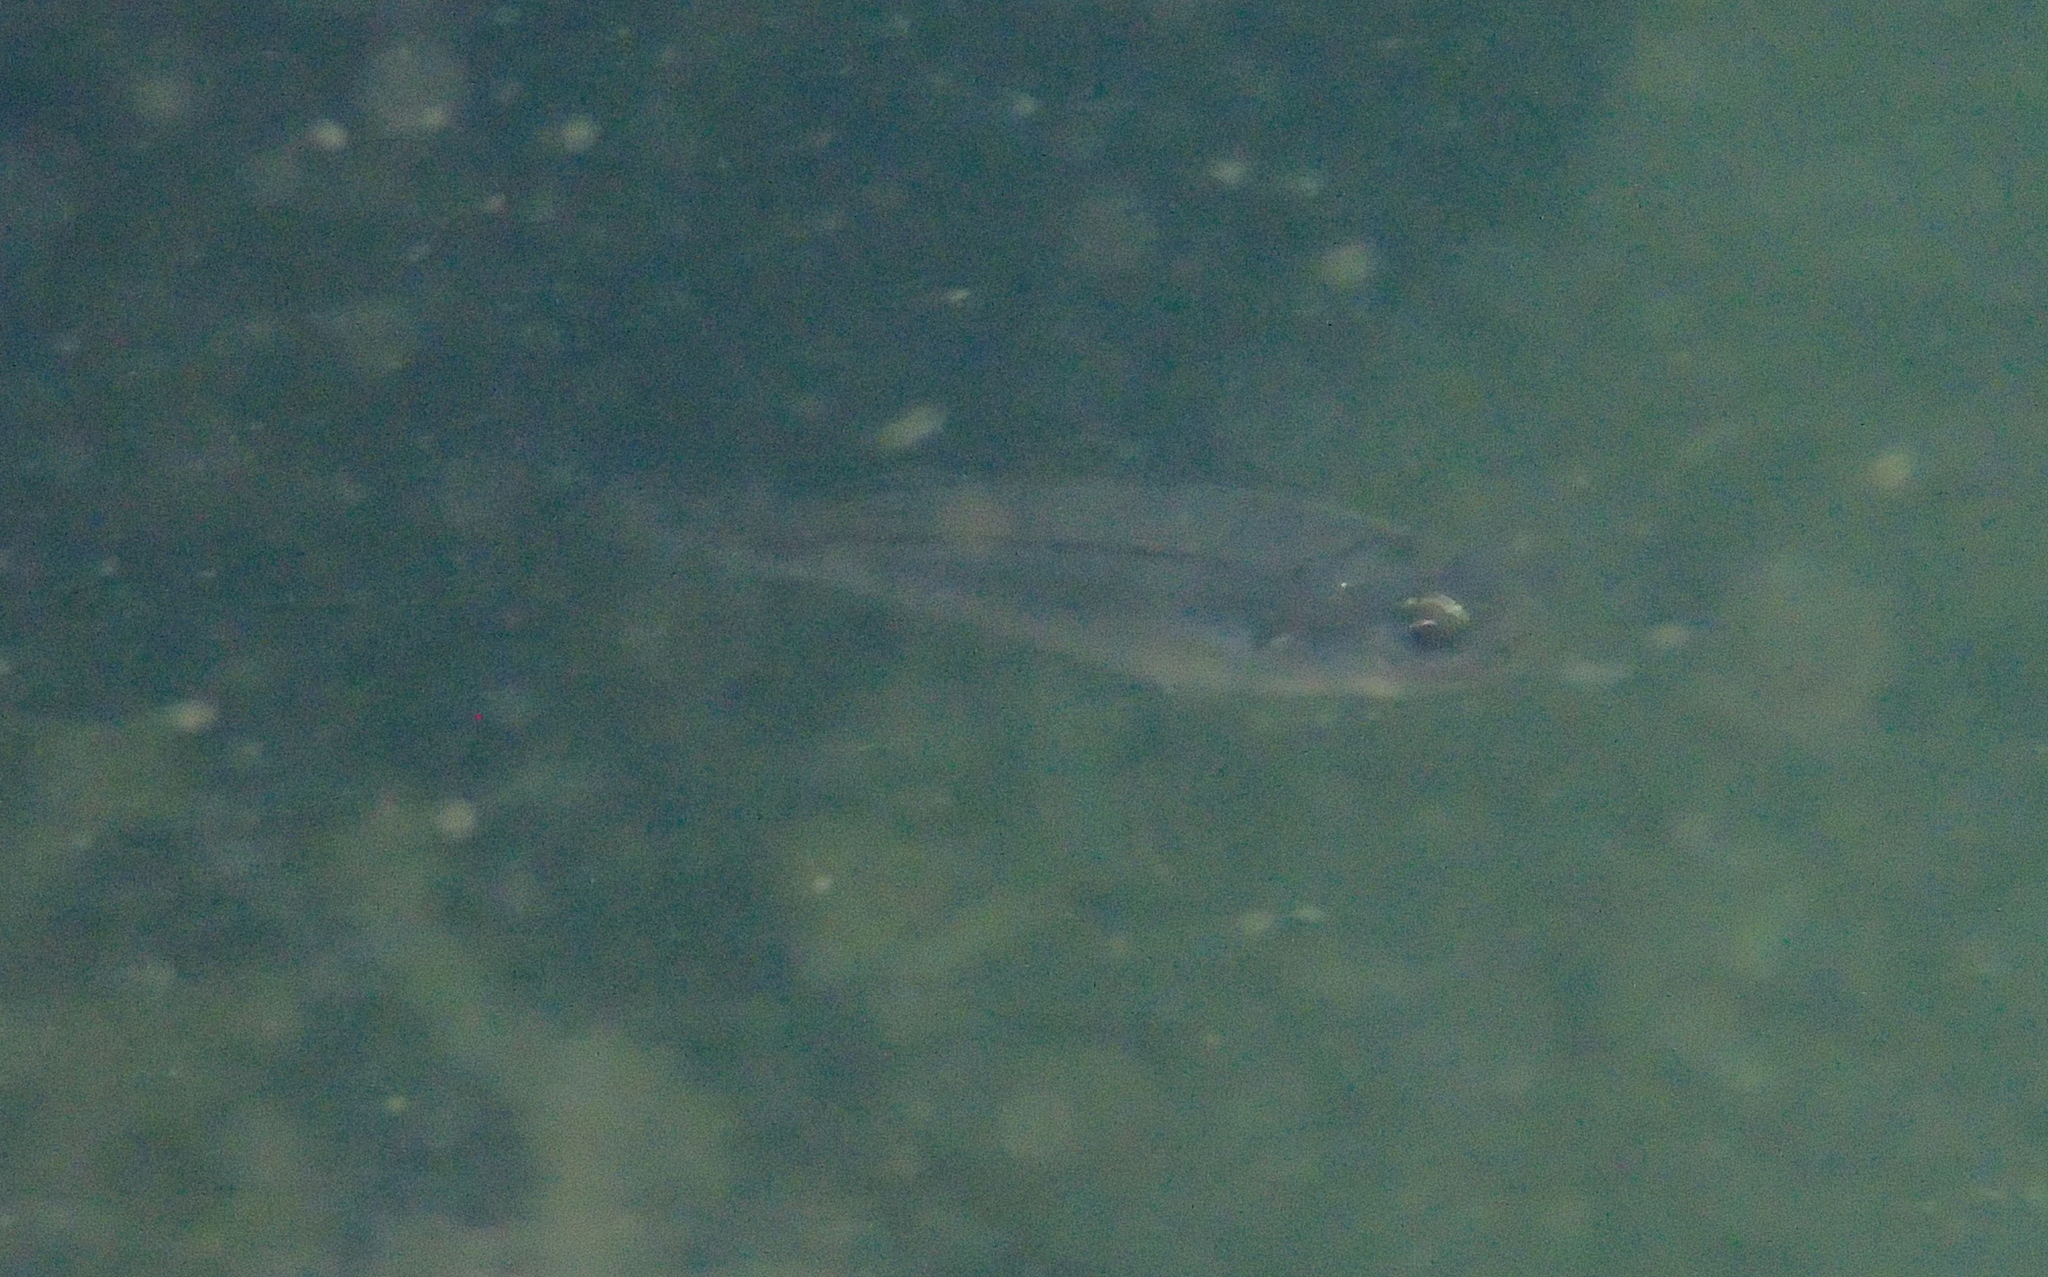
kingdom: Animalia
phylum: Chordata
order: Perciformes
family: Sparidae
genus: Boops
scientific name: Boops boops
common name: Bogue
